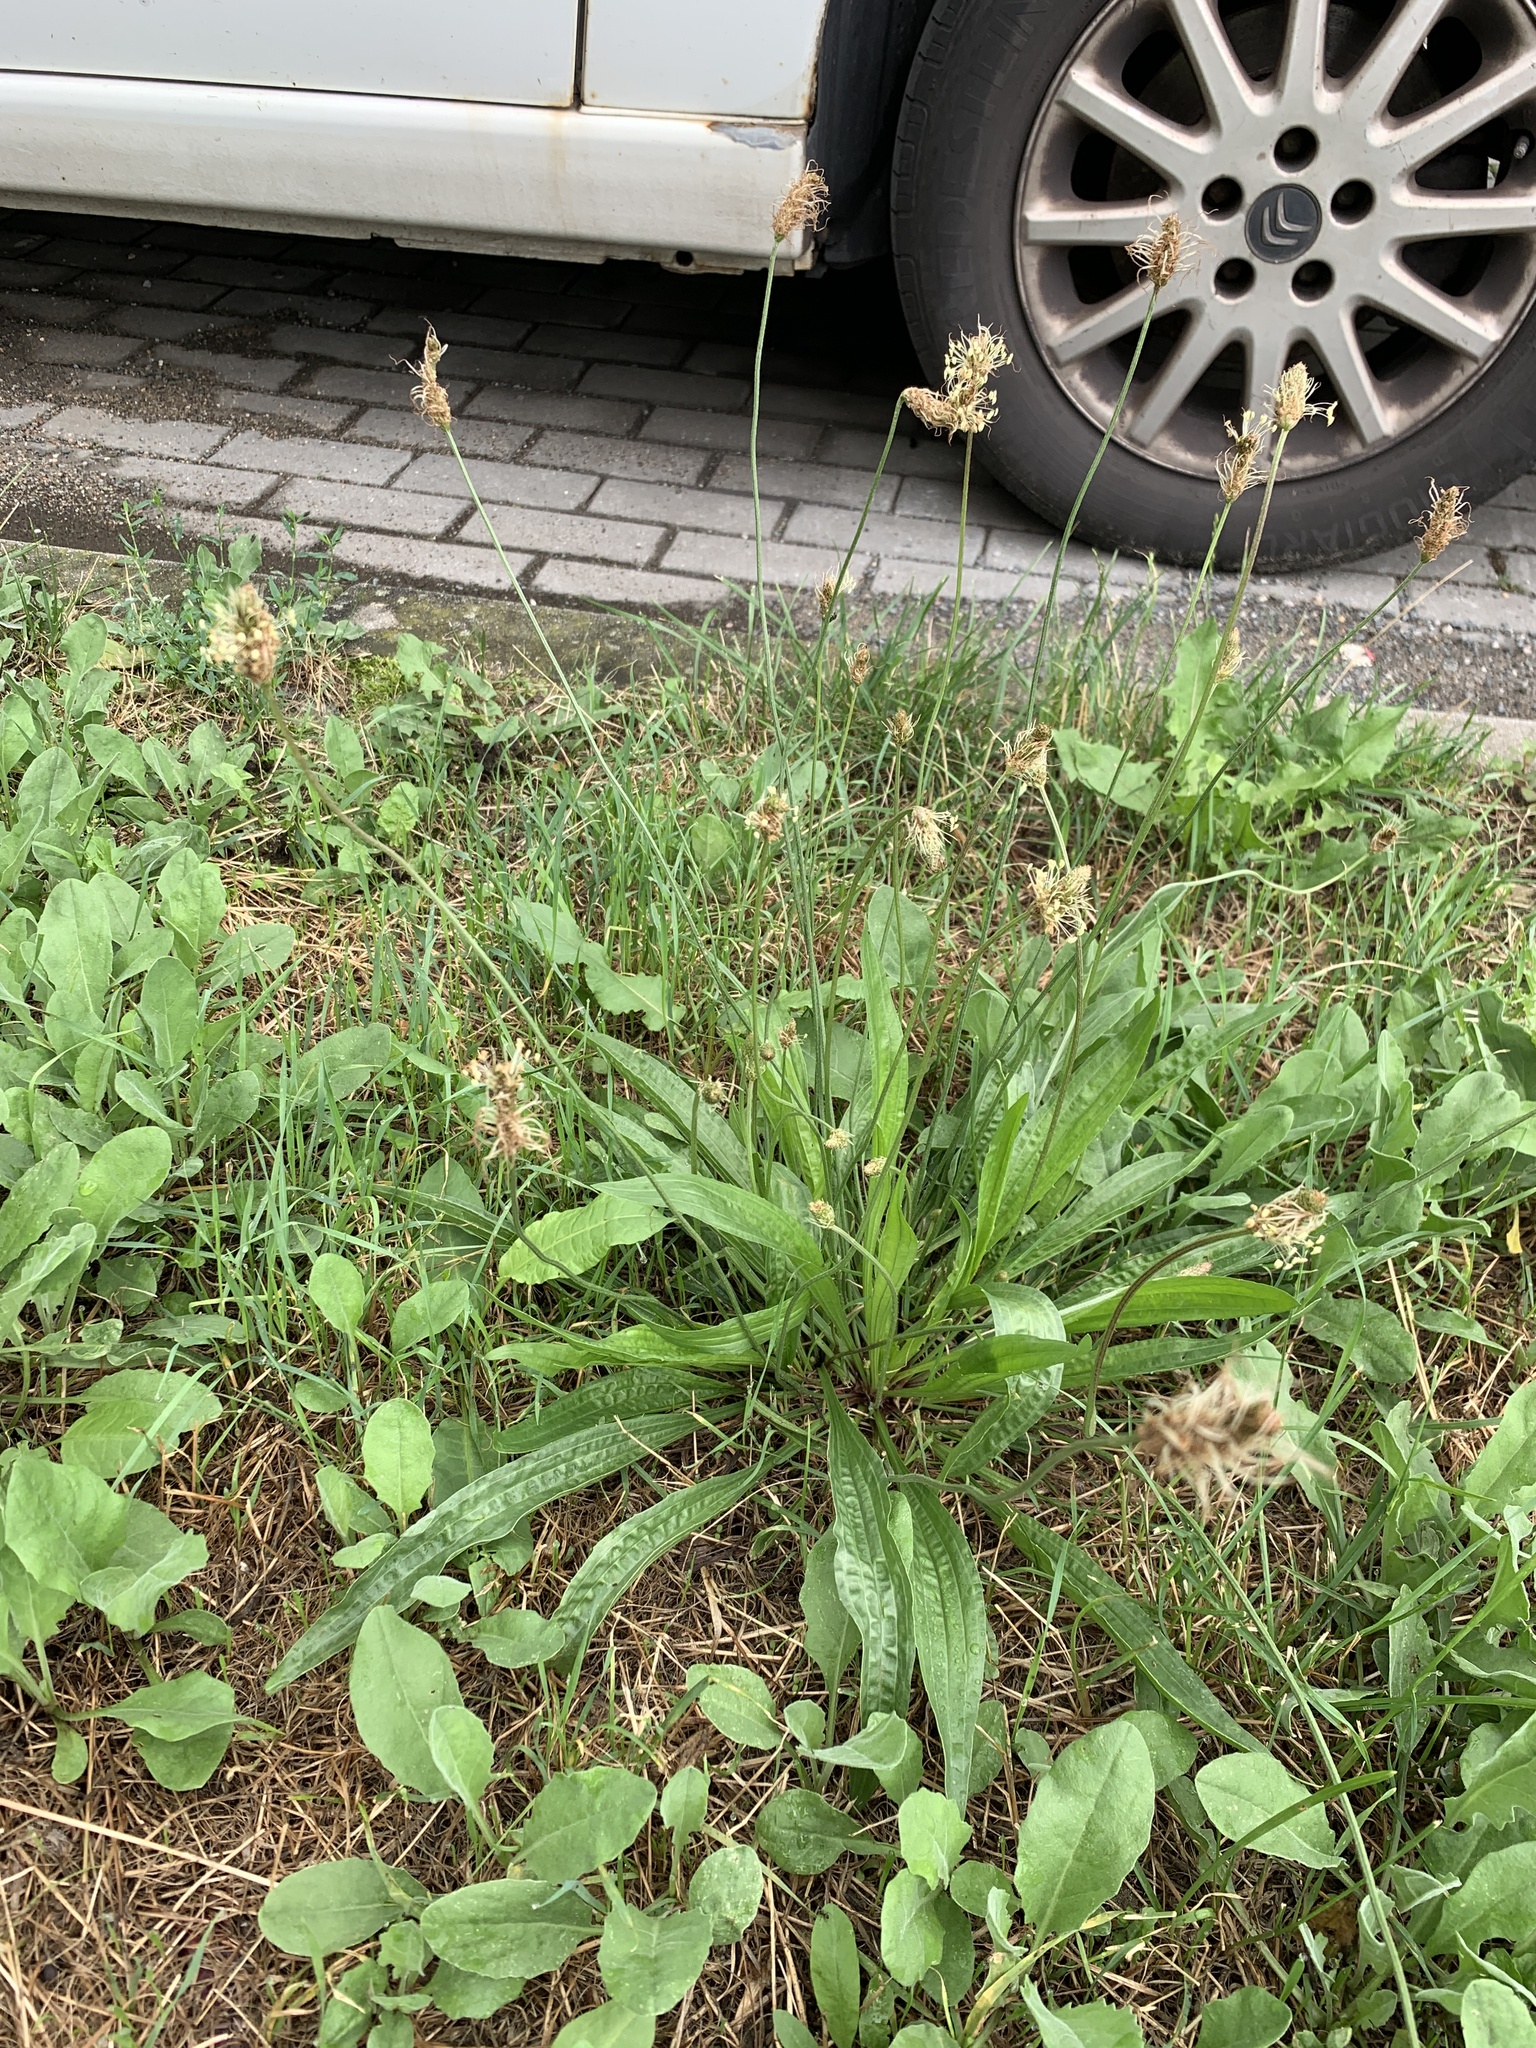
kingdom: Plantae
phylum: Tracheophyta
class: Magnoliopsida
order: Lamiales
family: Plantaginaceae
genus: Plantago
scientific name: Plantago lanceolata
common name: Ribwort plantain
